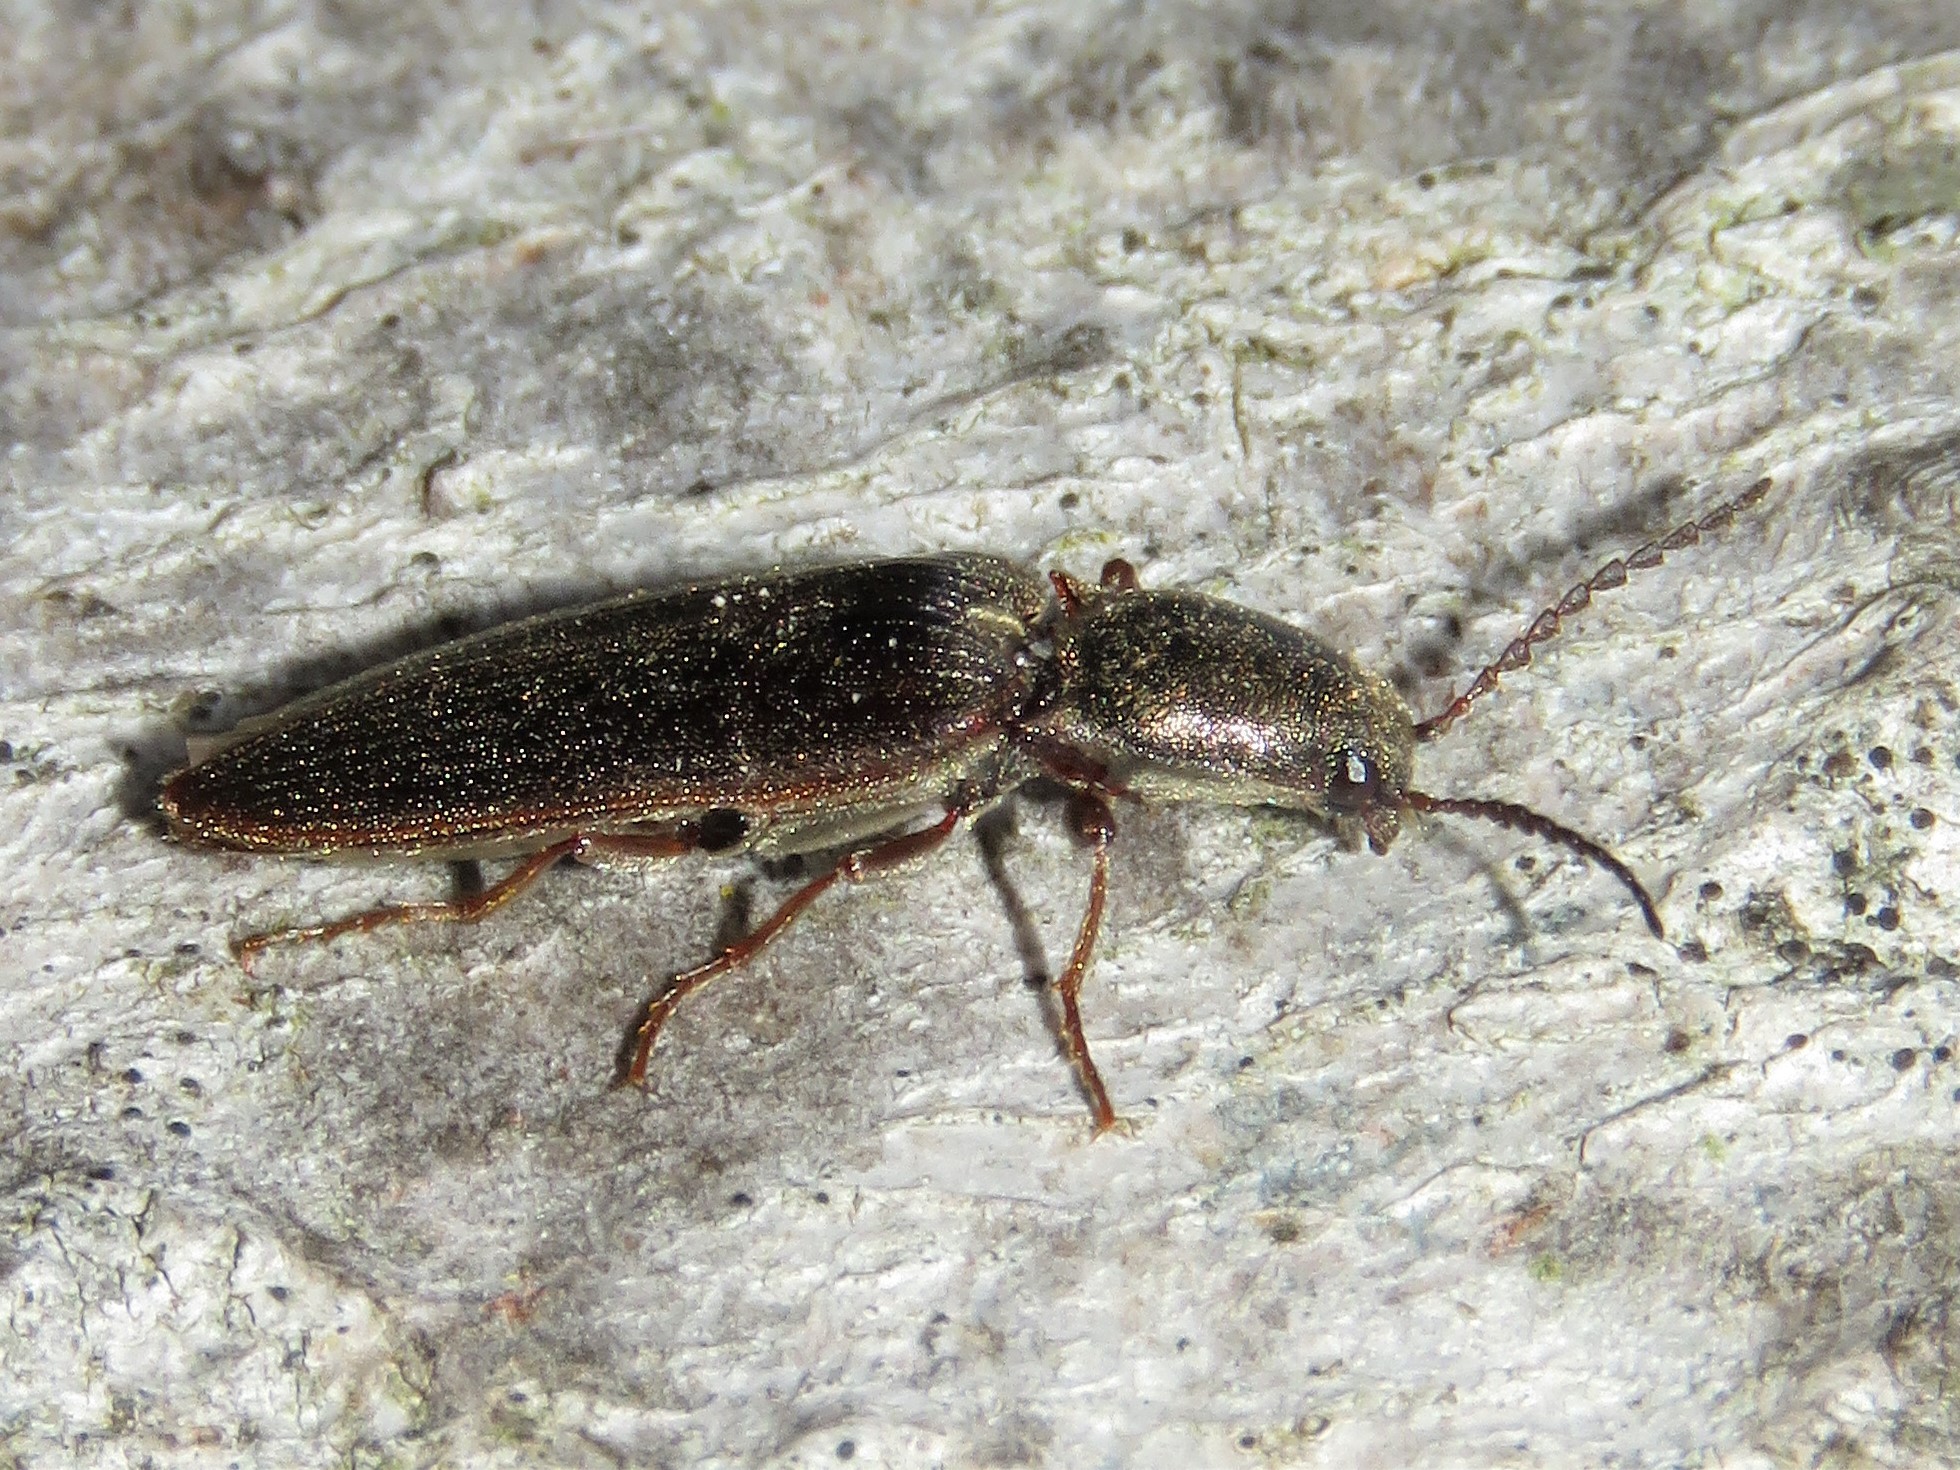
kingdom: Animalia
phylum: Arthropoda
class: Insecta
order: Coleoptera
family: Elateridae
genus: Sylvanelater
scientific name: Sylvanelater cylindriformis
